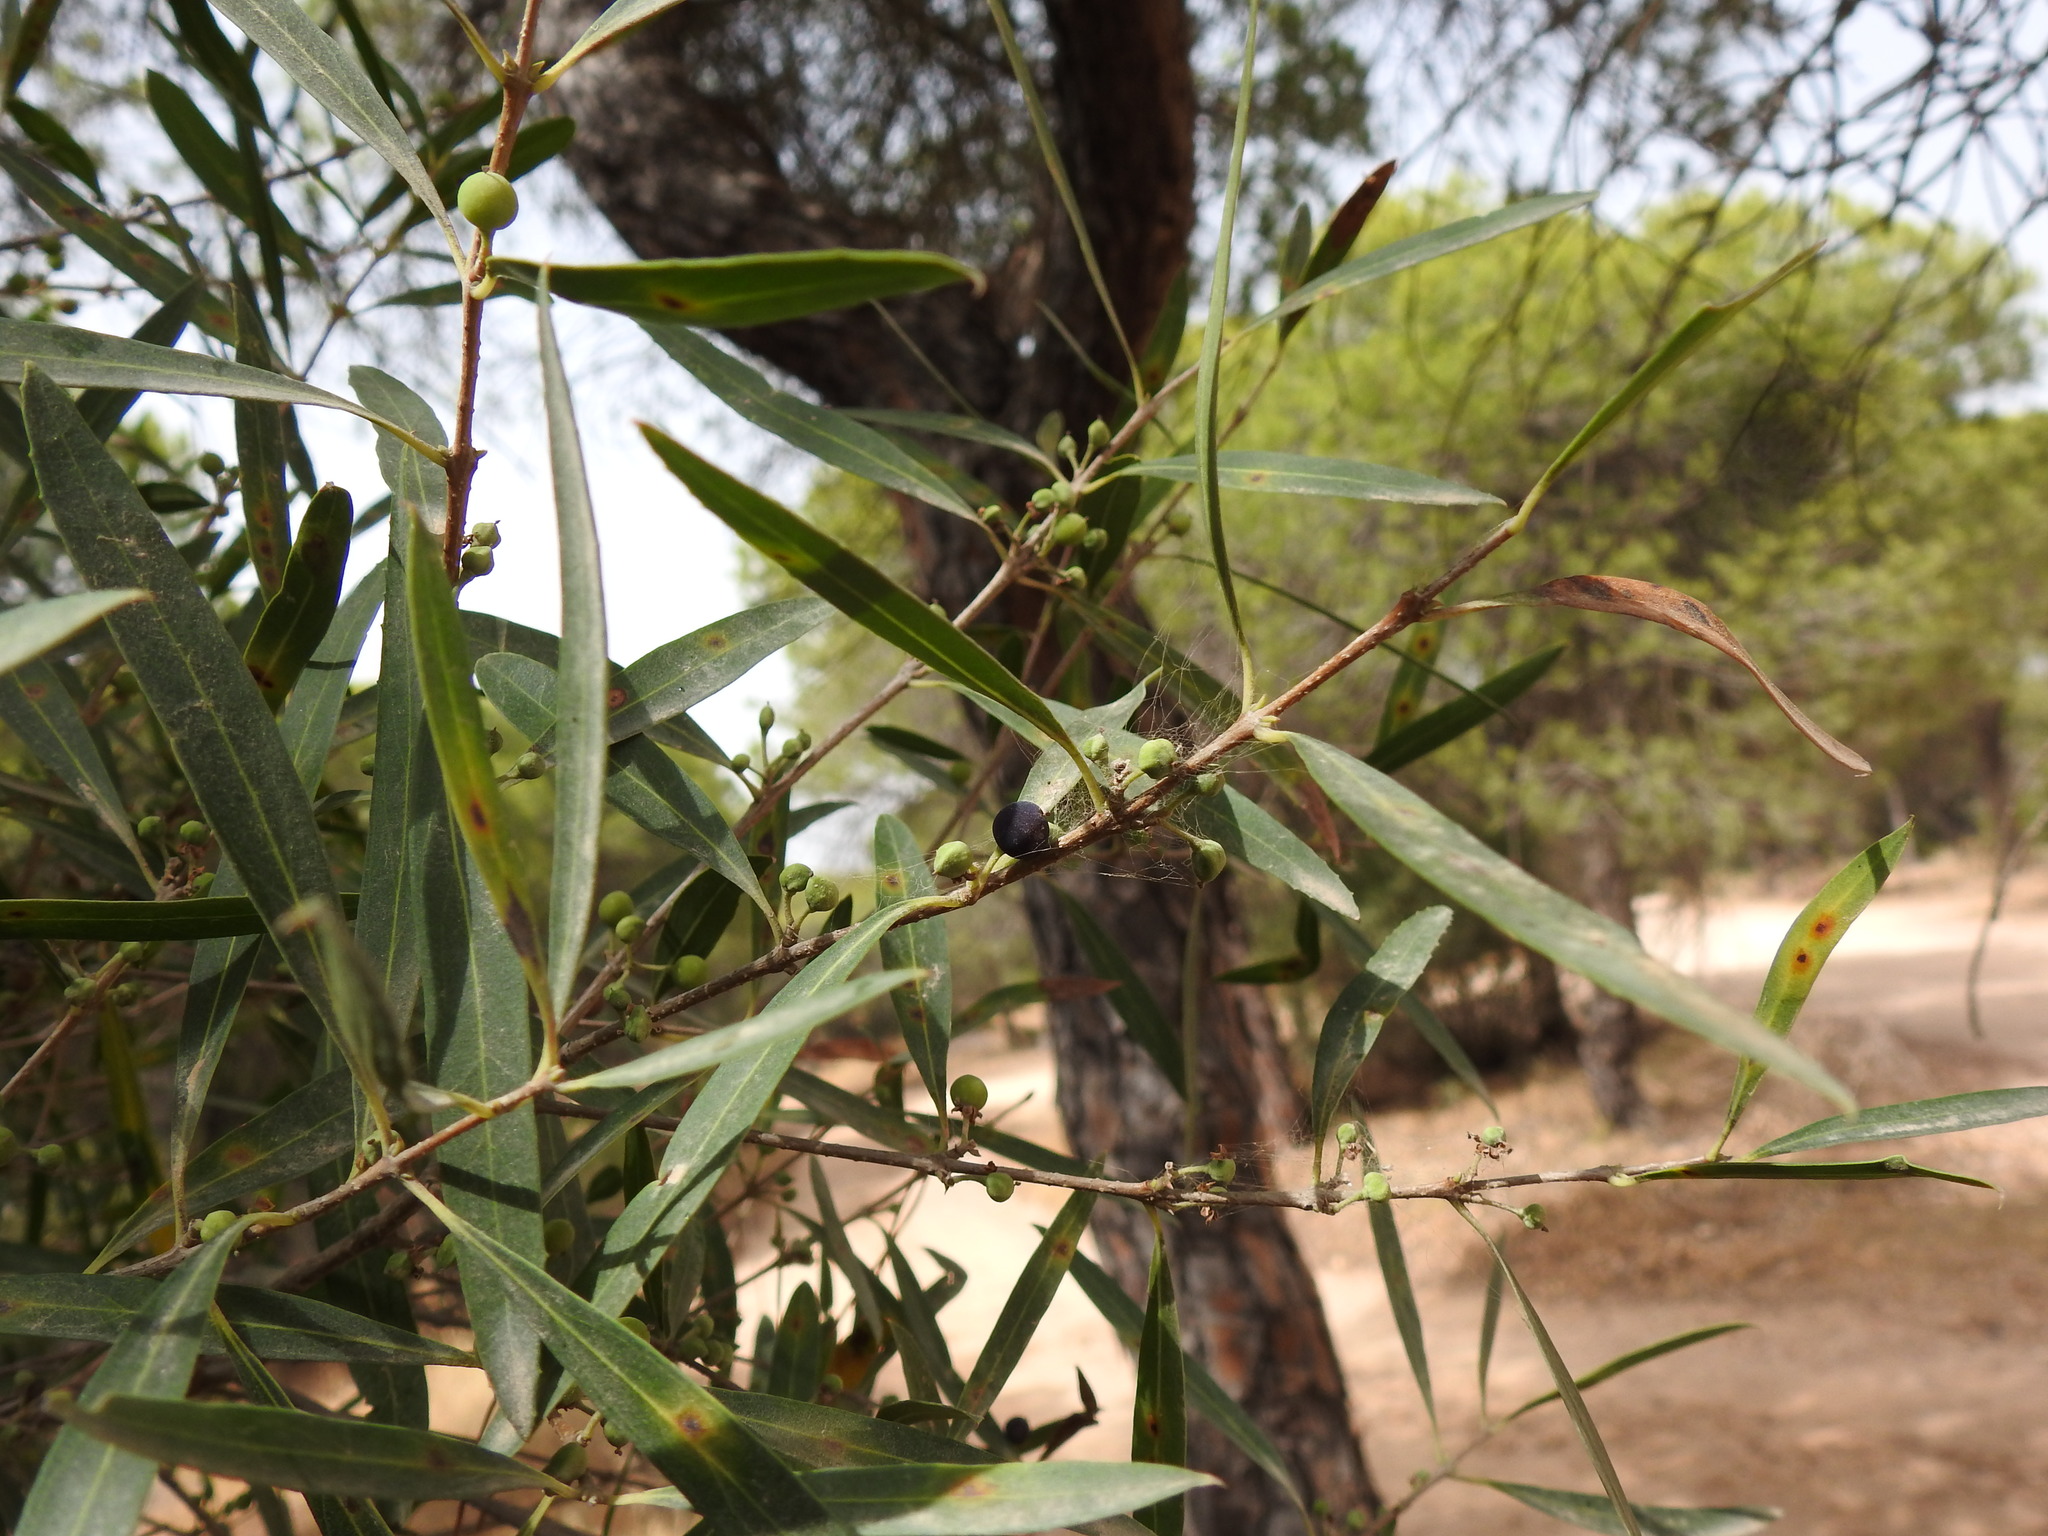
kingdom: Plantae
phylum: Tracheophyta
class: Magnoliopsida
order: Lamiales
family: Oleaceae
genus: Phillyrea
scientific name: Phillyrea angustifolia
